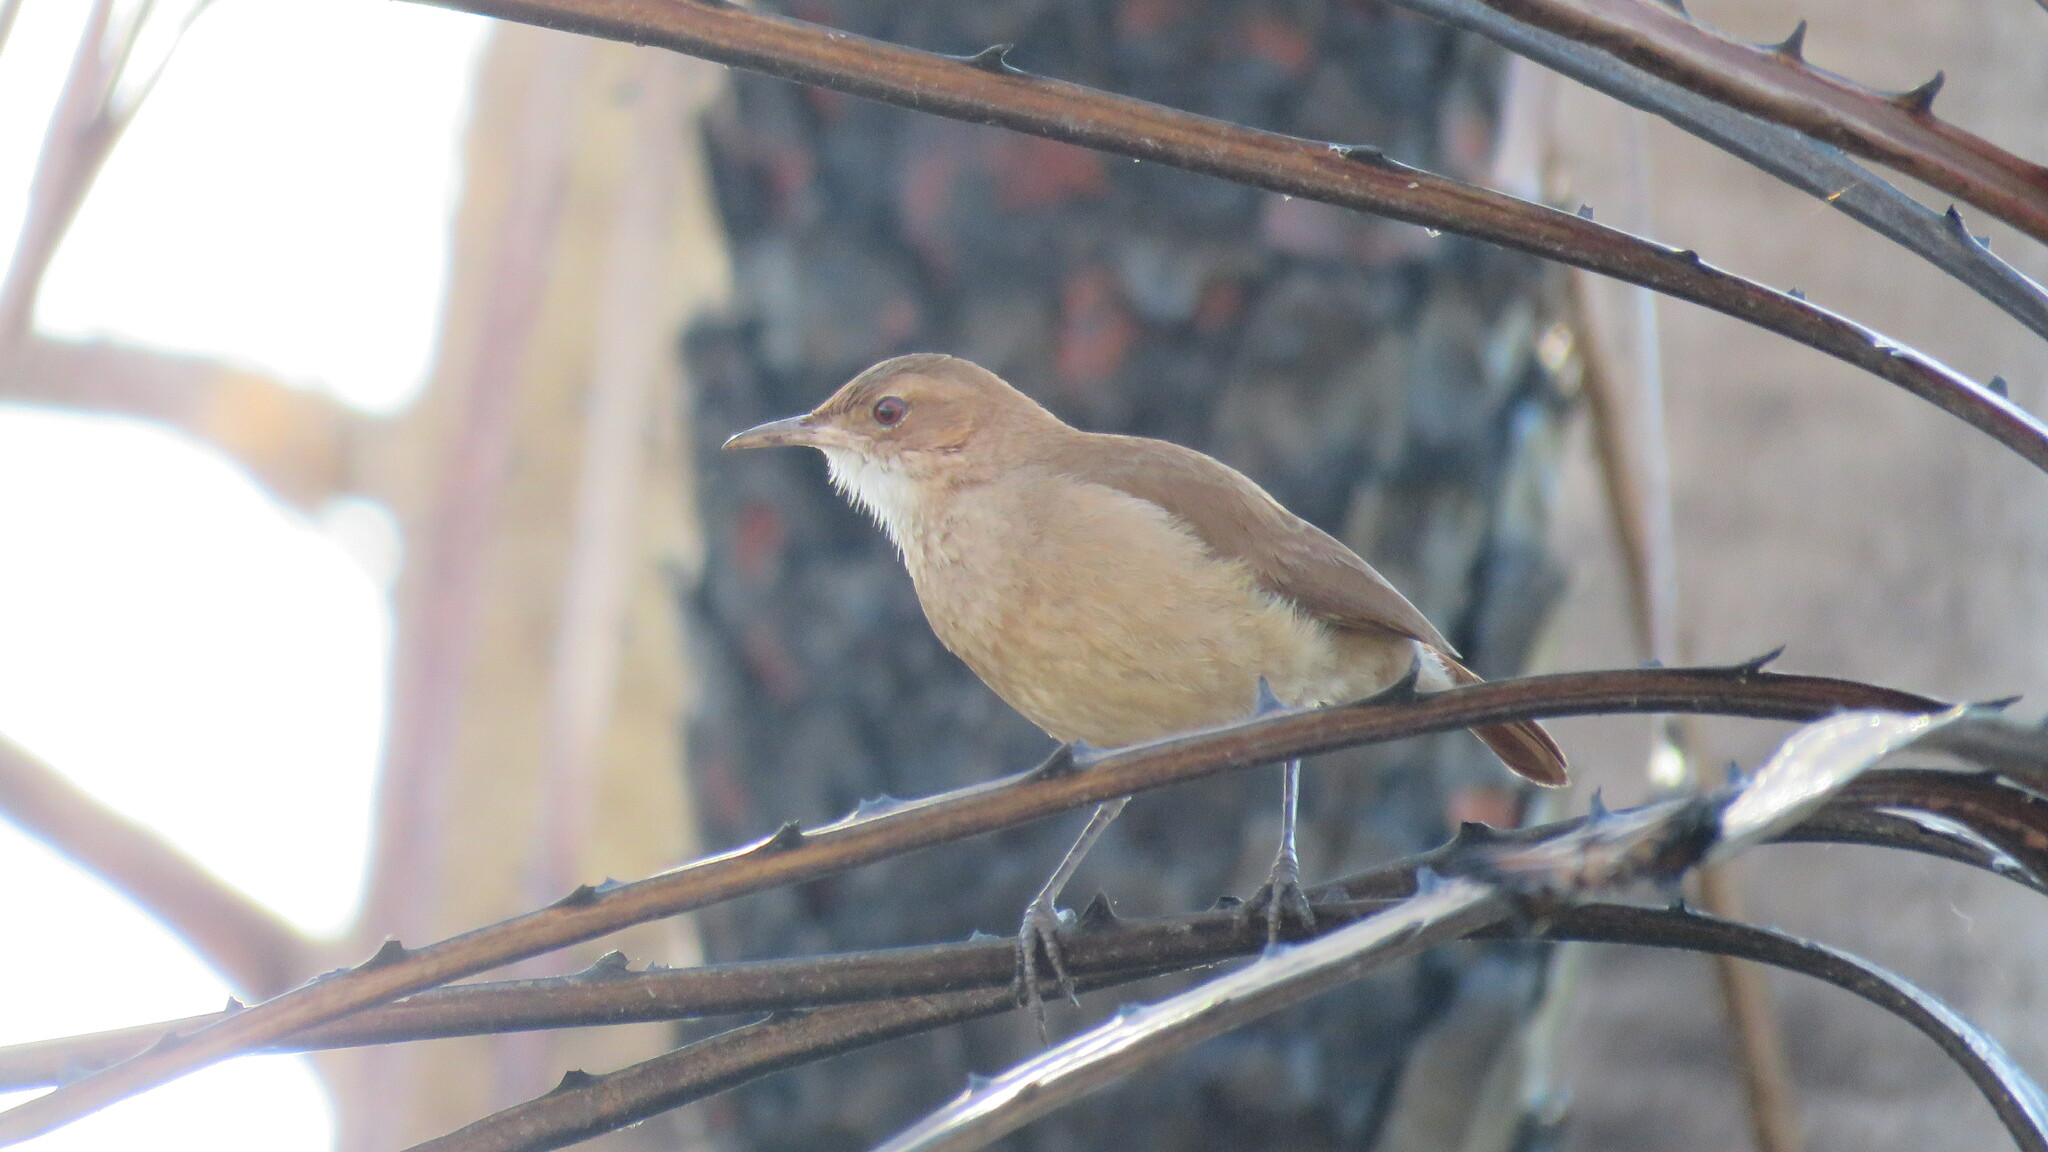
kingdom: Animalia
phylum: Chordata
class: Aves
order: Passeriformes
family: Furnariidae
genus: Furnarius
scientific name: Furnarius rufus
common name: Rufous hornero
